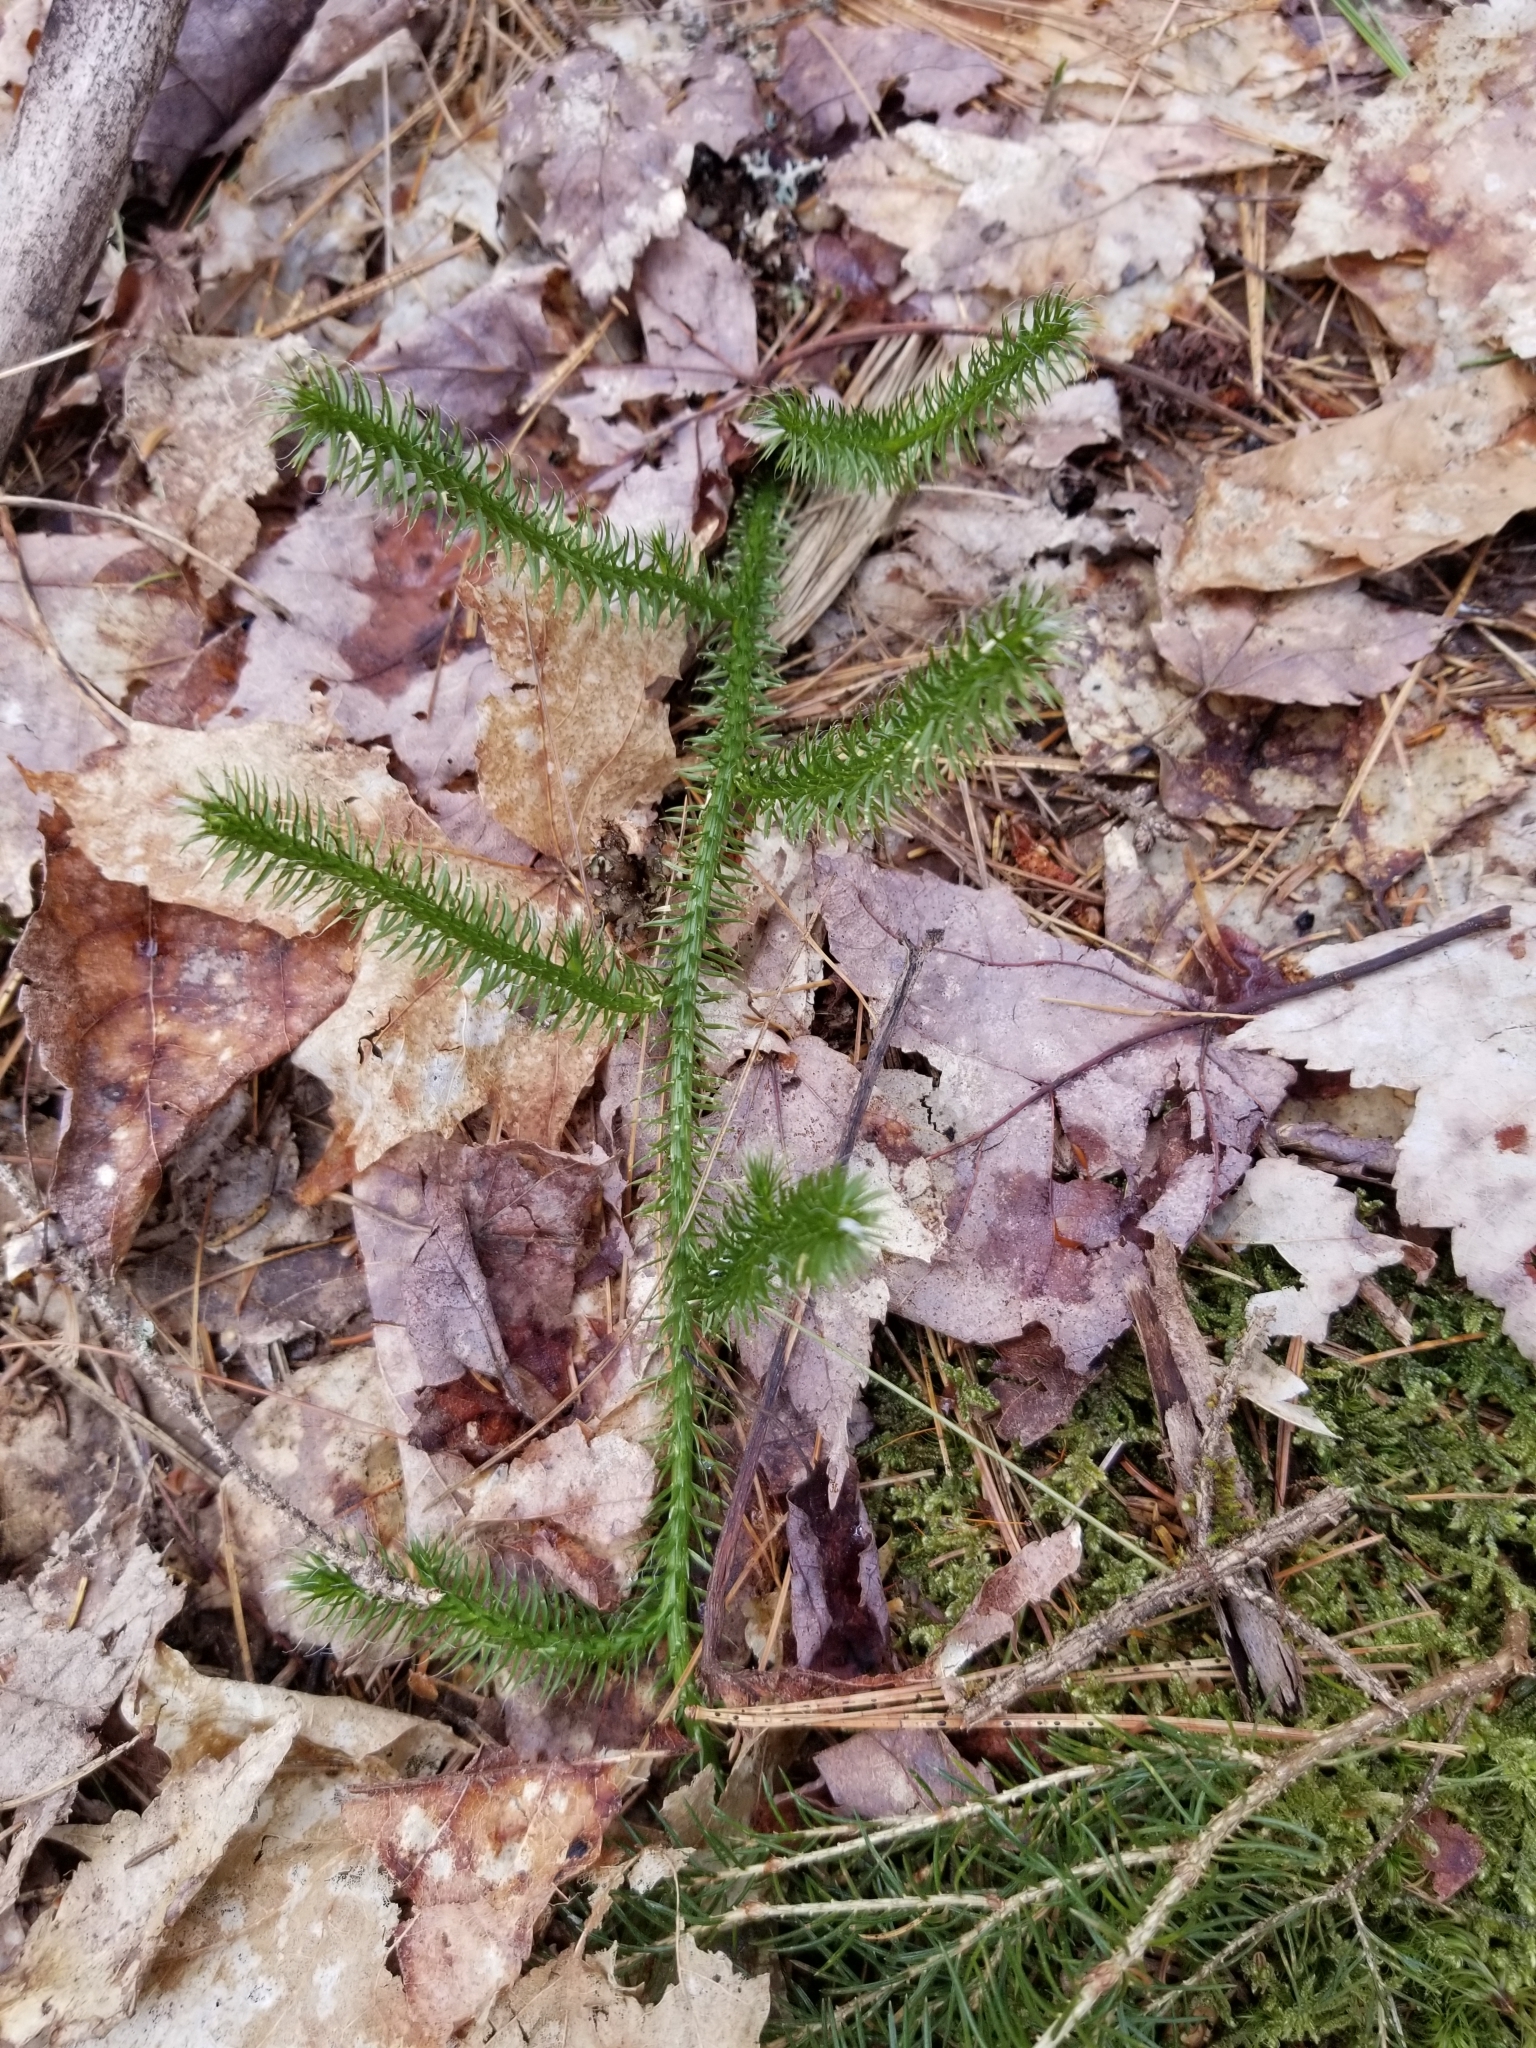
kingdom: Plantae
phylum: Tracheophyta
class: Lycopodiopsida
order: Lycopodiales
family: Lycopodiaceae
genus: Lycopodium
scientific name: Lycopodium clavatum
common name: Stag's-horn clubmoss
